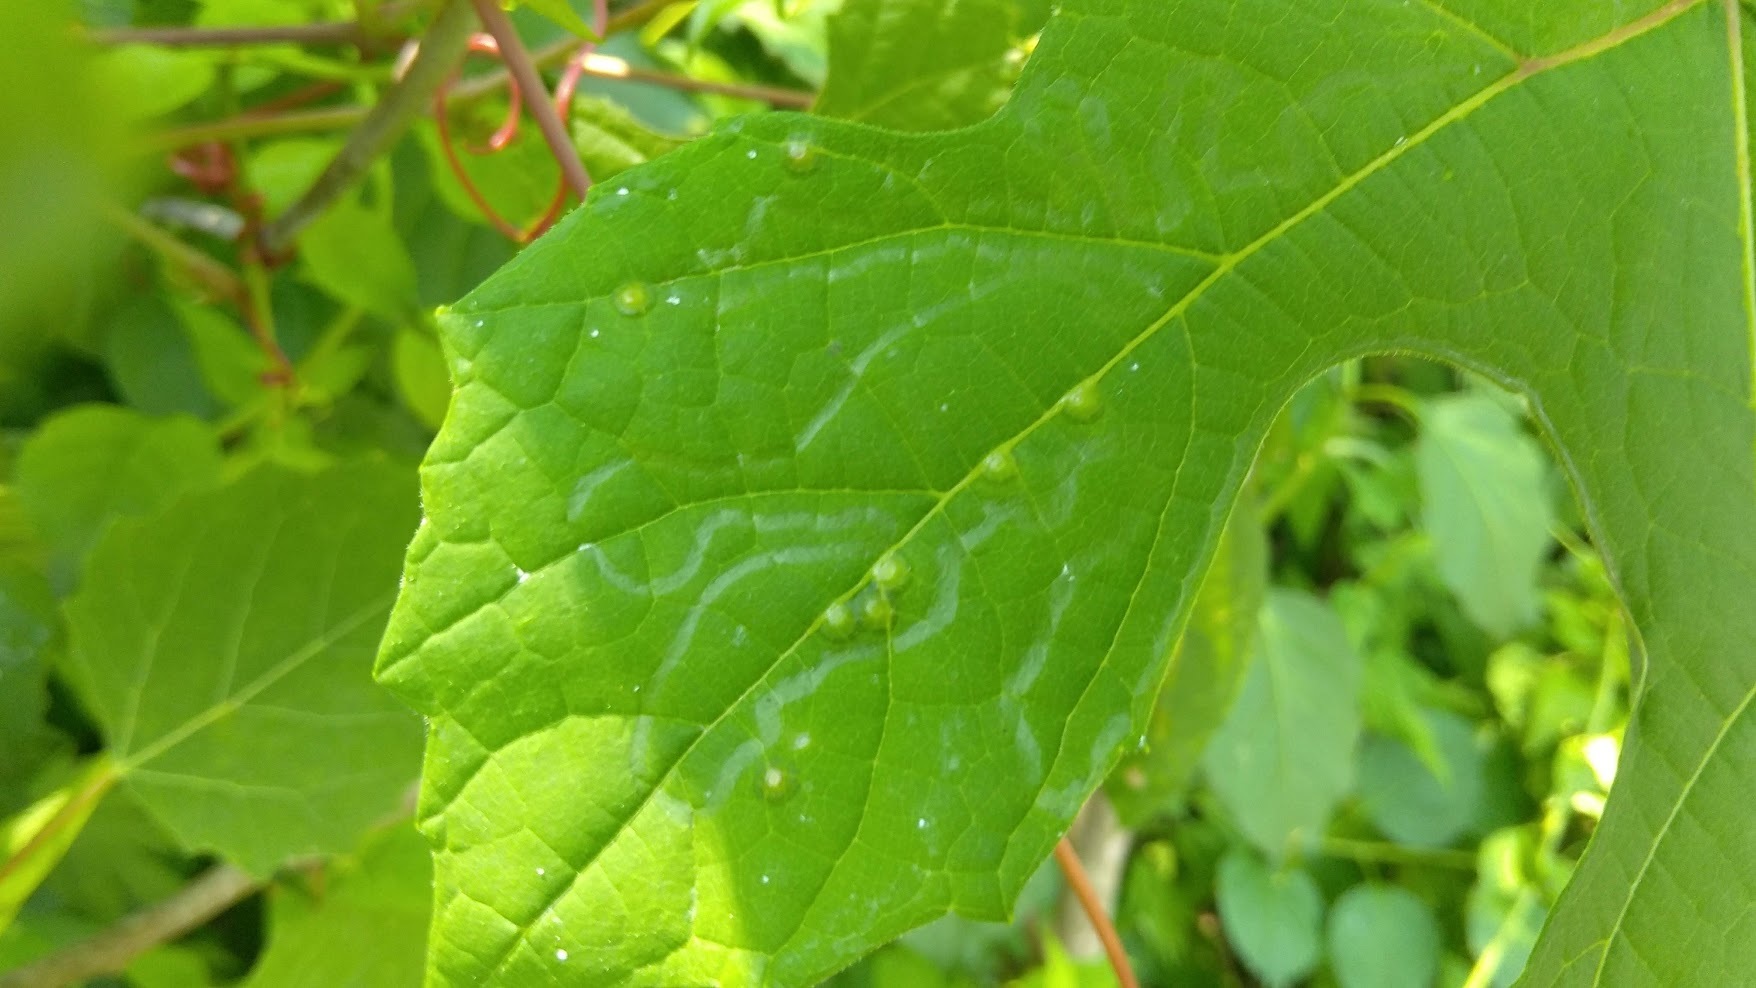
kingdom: Animalia
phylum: Arthropoda
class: Insecta
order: Lepidoptera
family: Gracillariidae
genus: Phyllocnistis
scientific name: Phyllocnistis vitegenella
